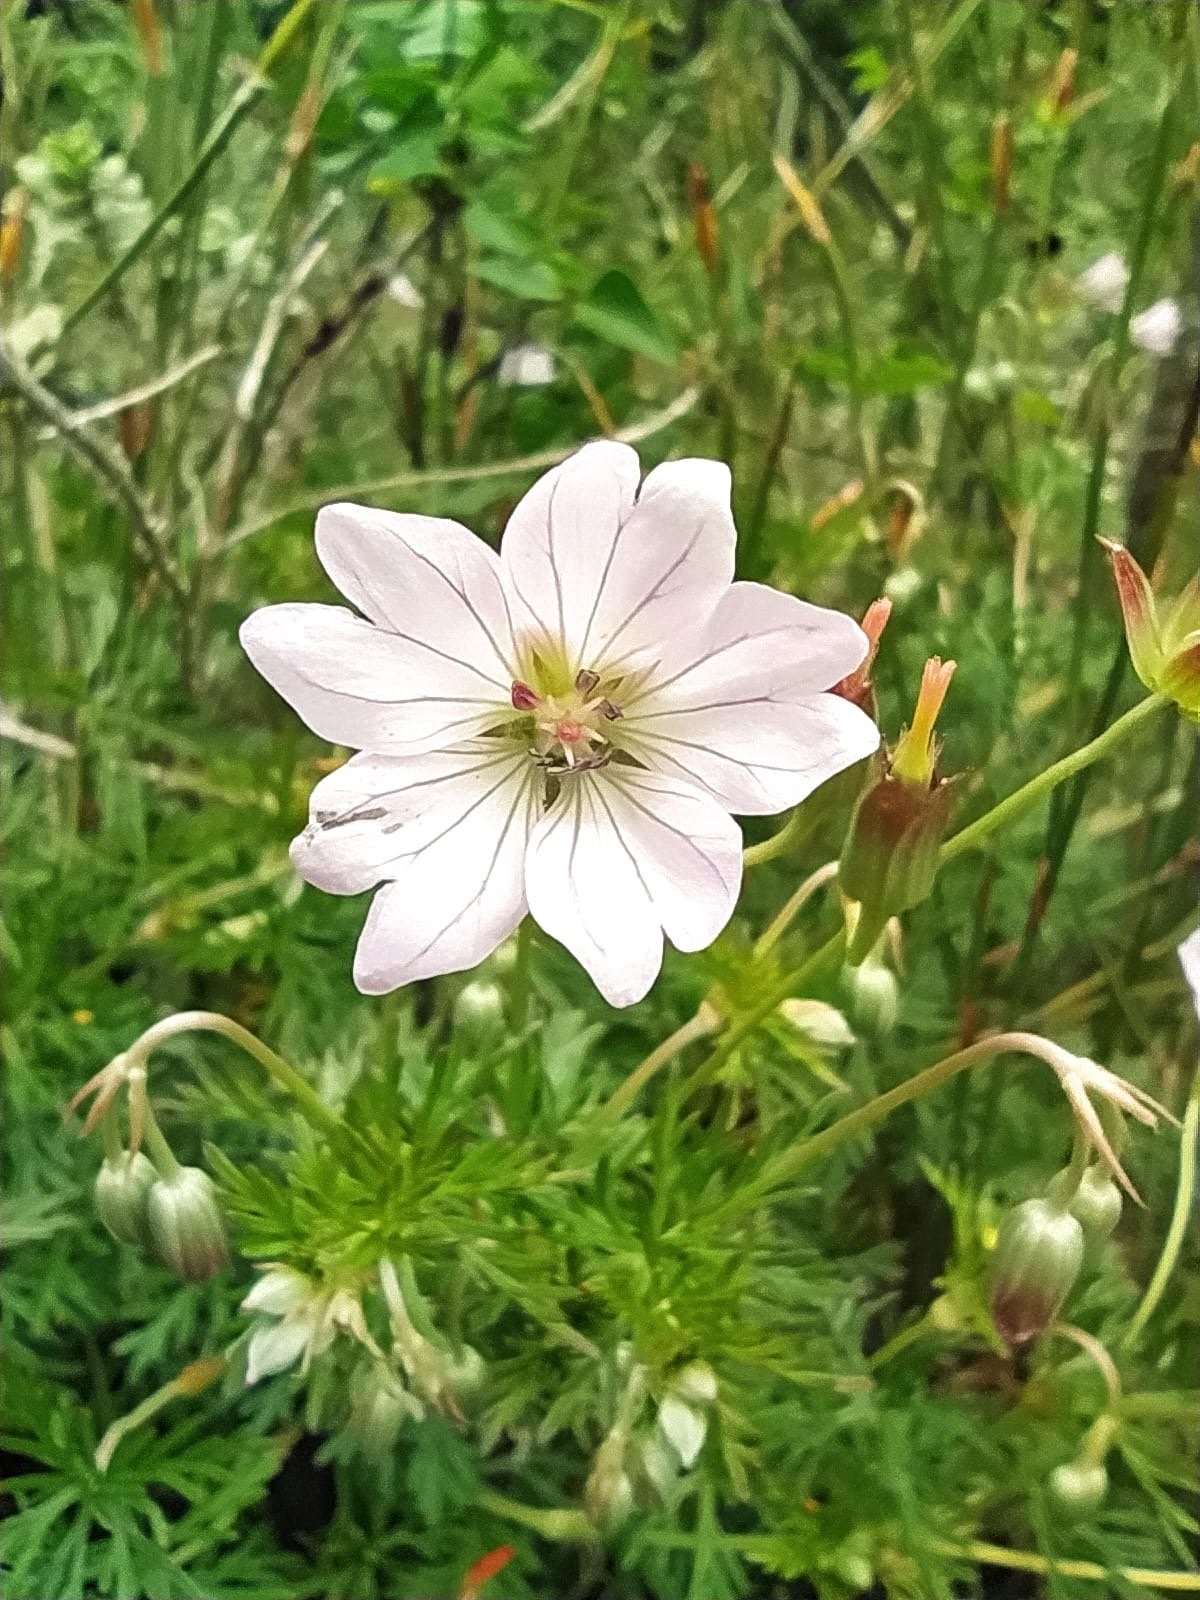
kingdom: Plantae
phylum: Tracheophyta
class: Magnoliopsida
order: Geraniales
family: Geraniaceae
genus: Geranium
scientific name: Geranium incanum
